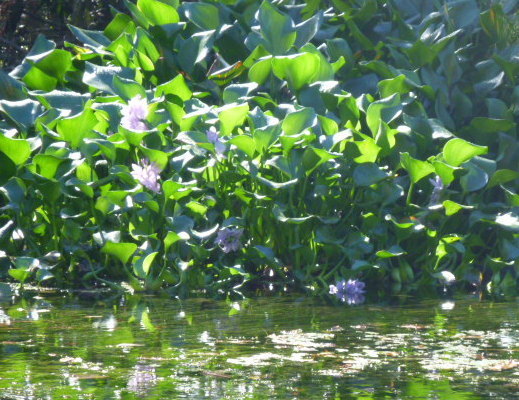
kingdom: Plantae
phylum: Tracheophyta
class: Liliopsida
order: Commelinales
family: Pontederiaceae
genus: Pontederia
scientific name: Pontederia crassipes
